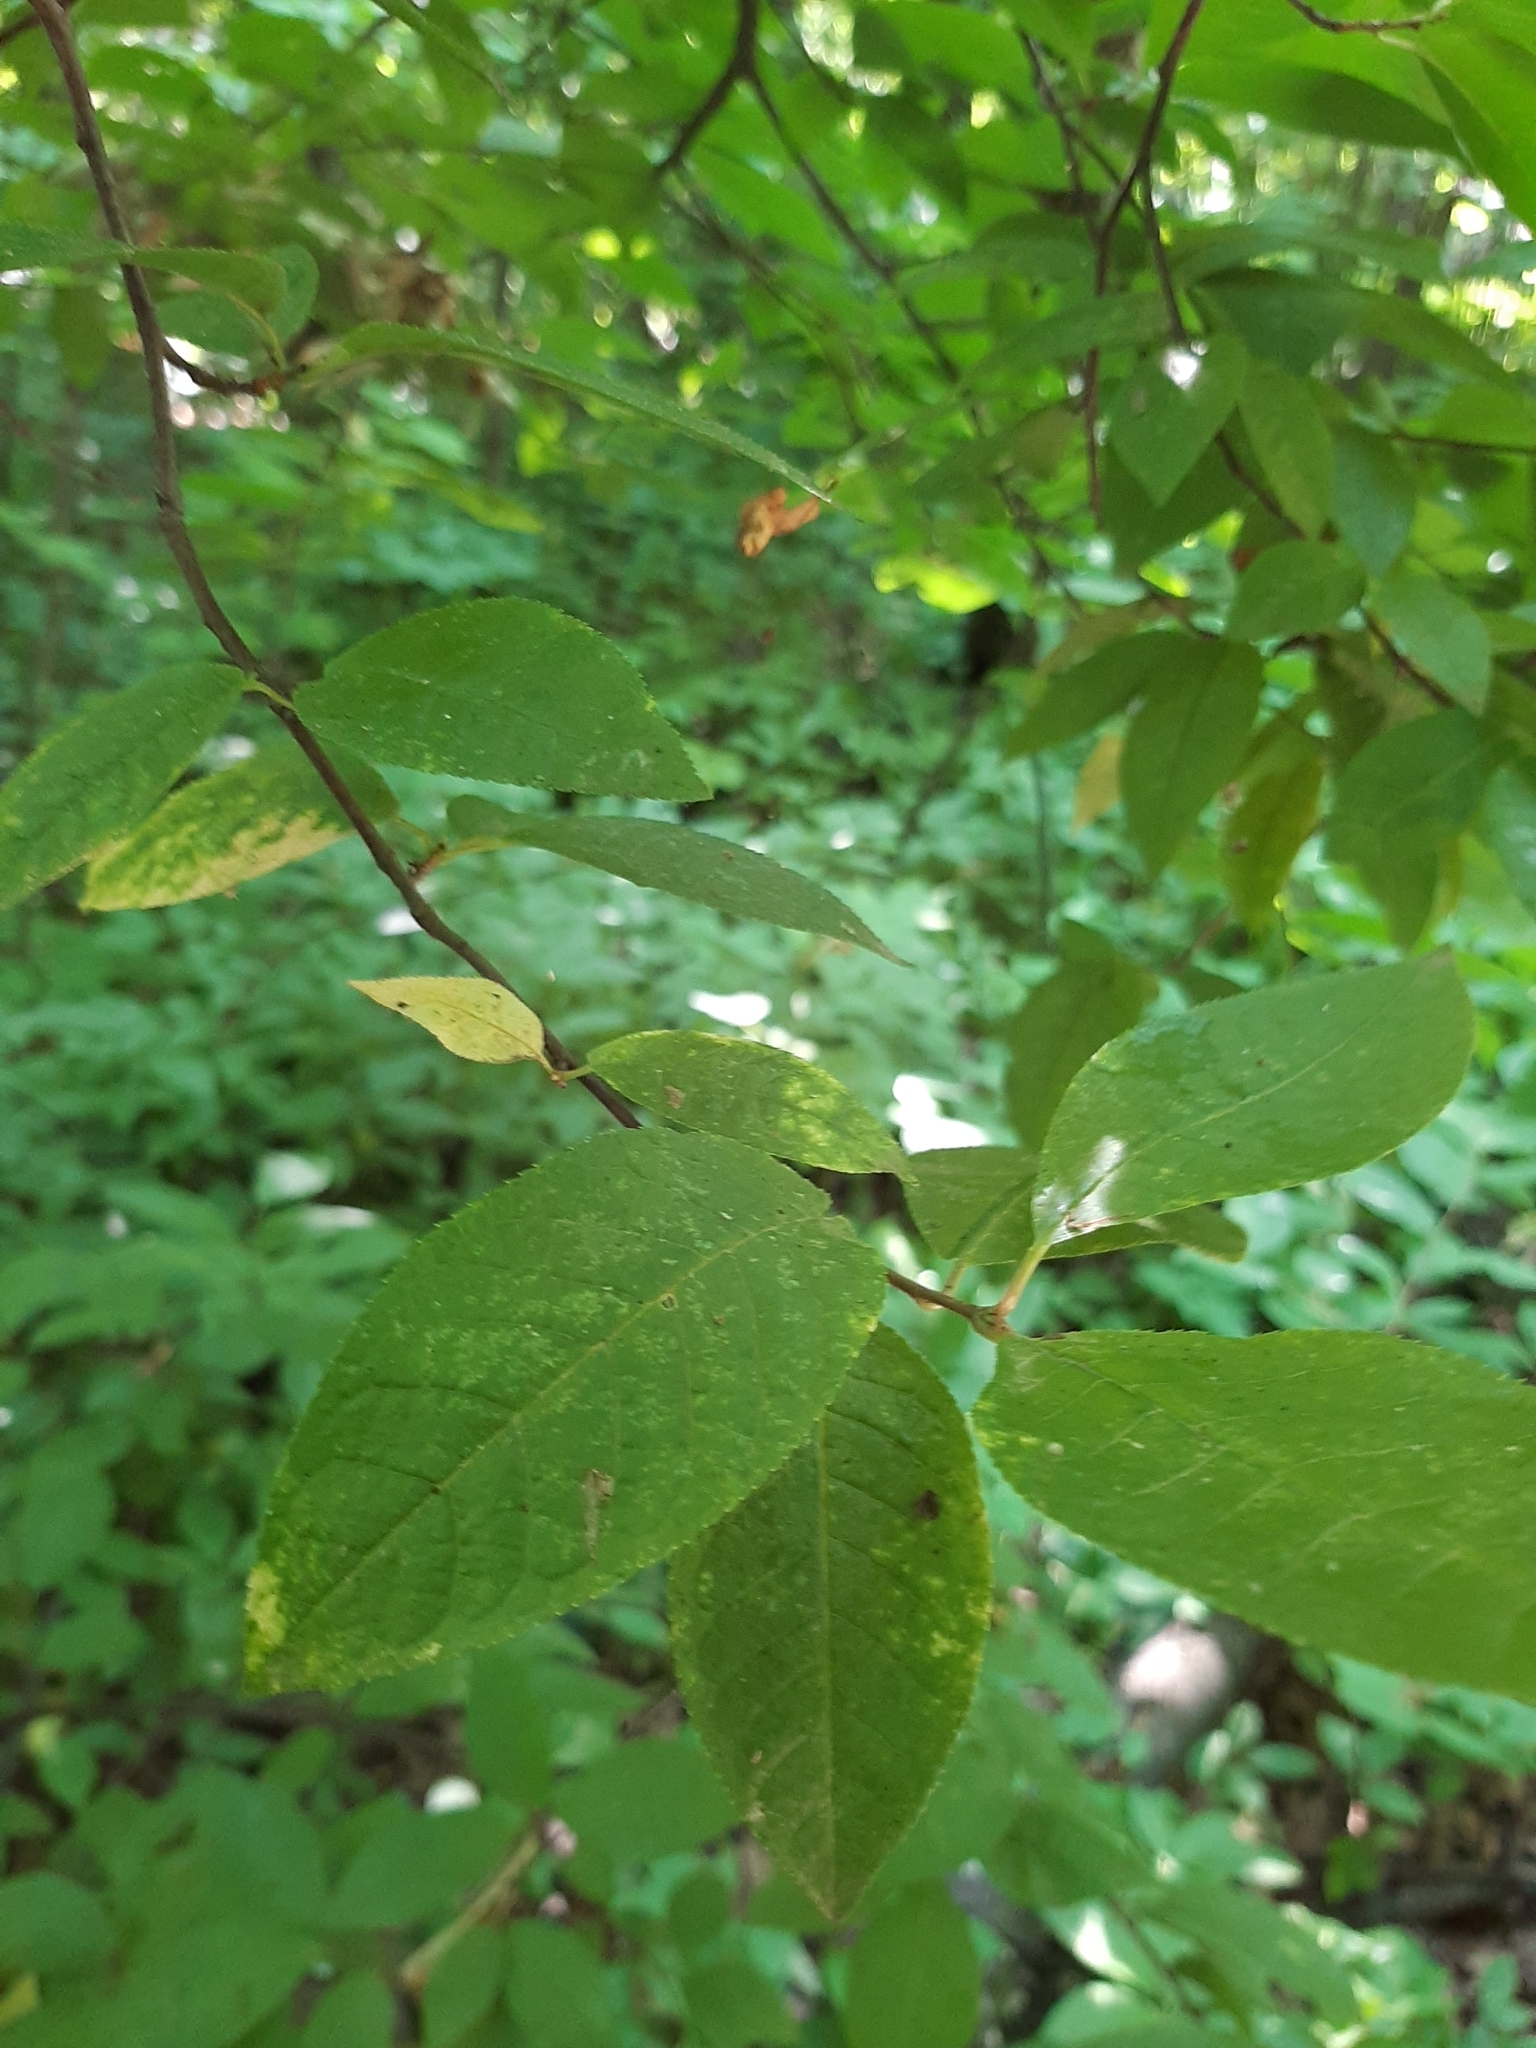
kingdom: Plantae
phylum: Tracheophyta
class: Magnoliopsida
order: Rosales
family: Rosaceae
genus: Prunus
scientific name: Prunus padus
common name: Bird cherry
